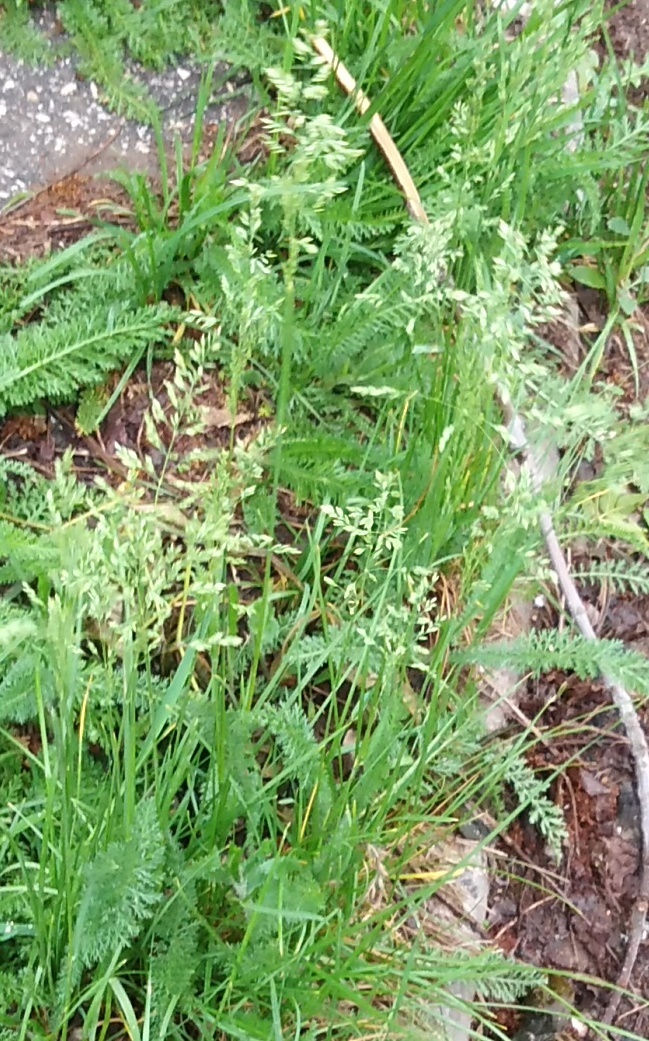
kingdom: Plantae
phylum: Tracheophyta
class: Liliopsida
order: Poales
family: Poaceae
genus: Poa
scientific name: Poa annua
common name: Annual bluegrass
